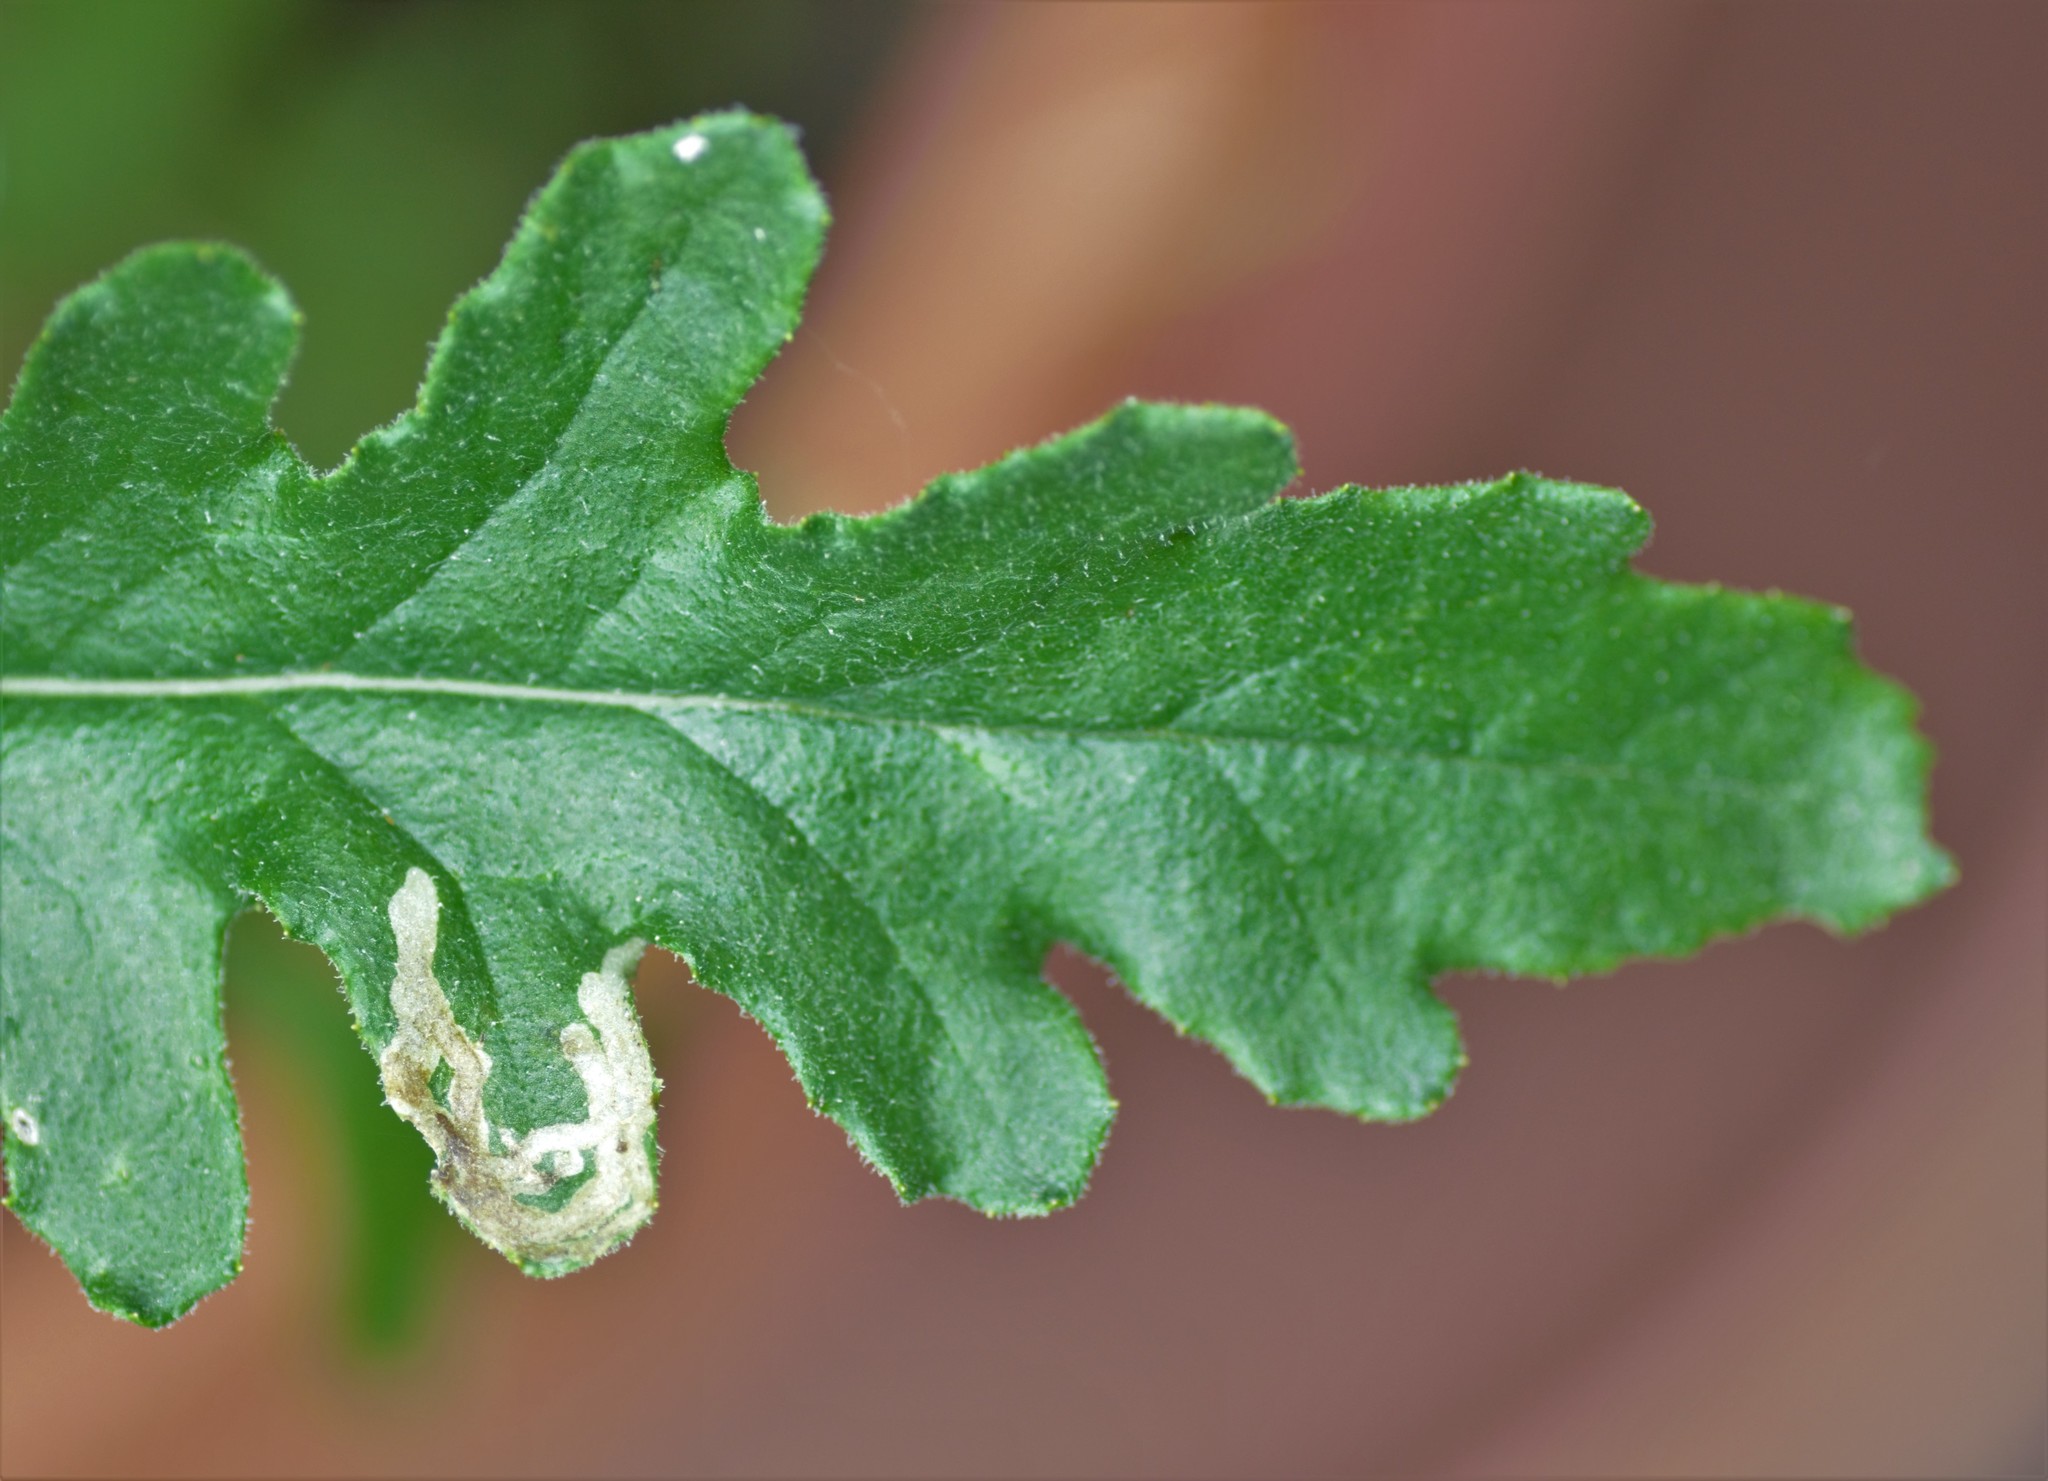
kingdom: Animalia
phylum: Arthropoda
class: Insecta
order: Lepidoptera
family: Nepticulidae
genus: Stigmella
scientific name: Stigmella ogygia
